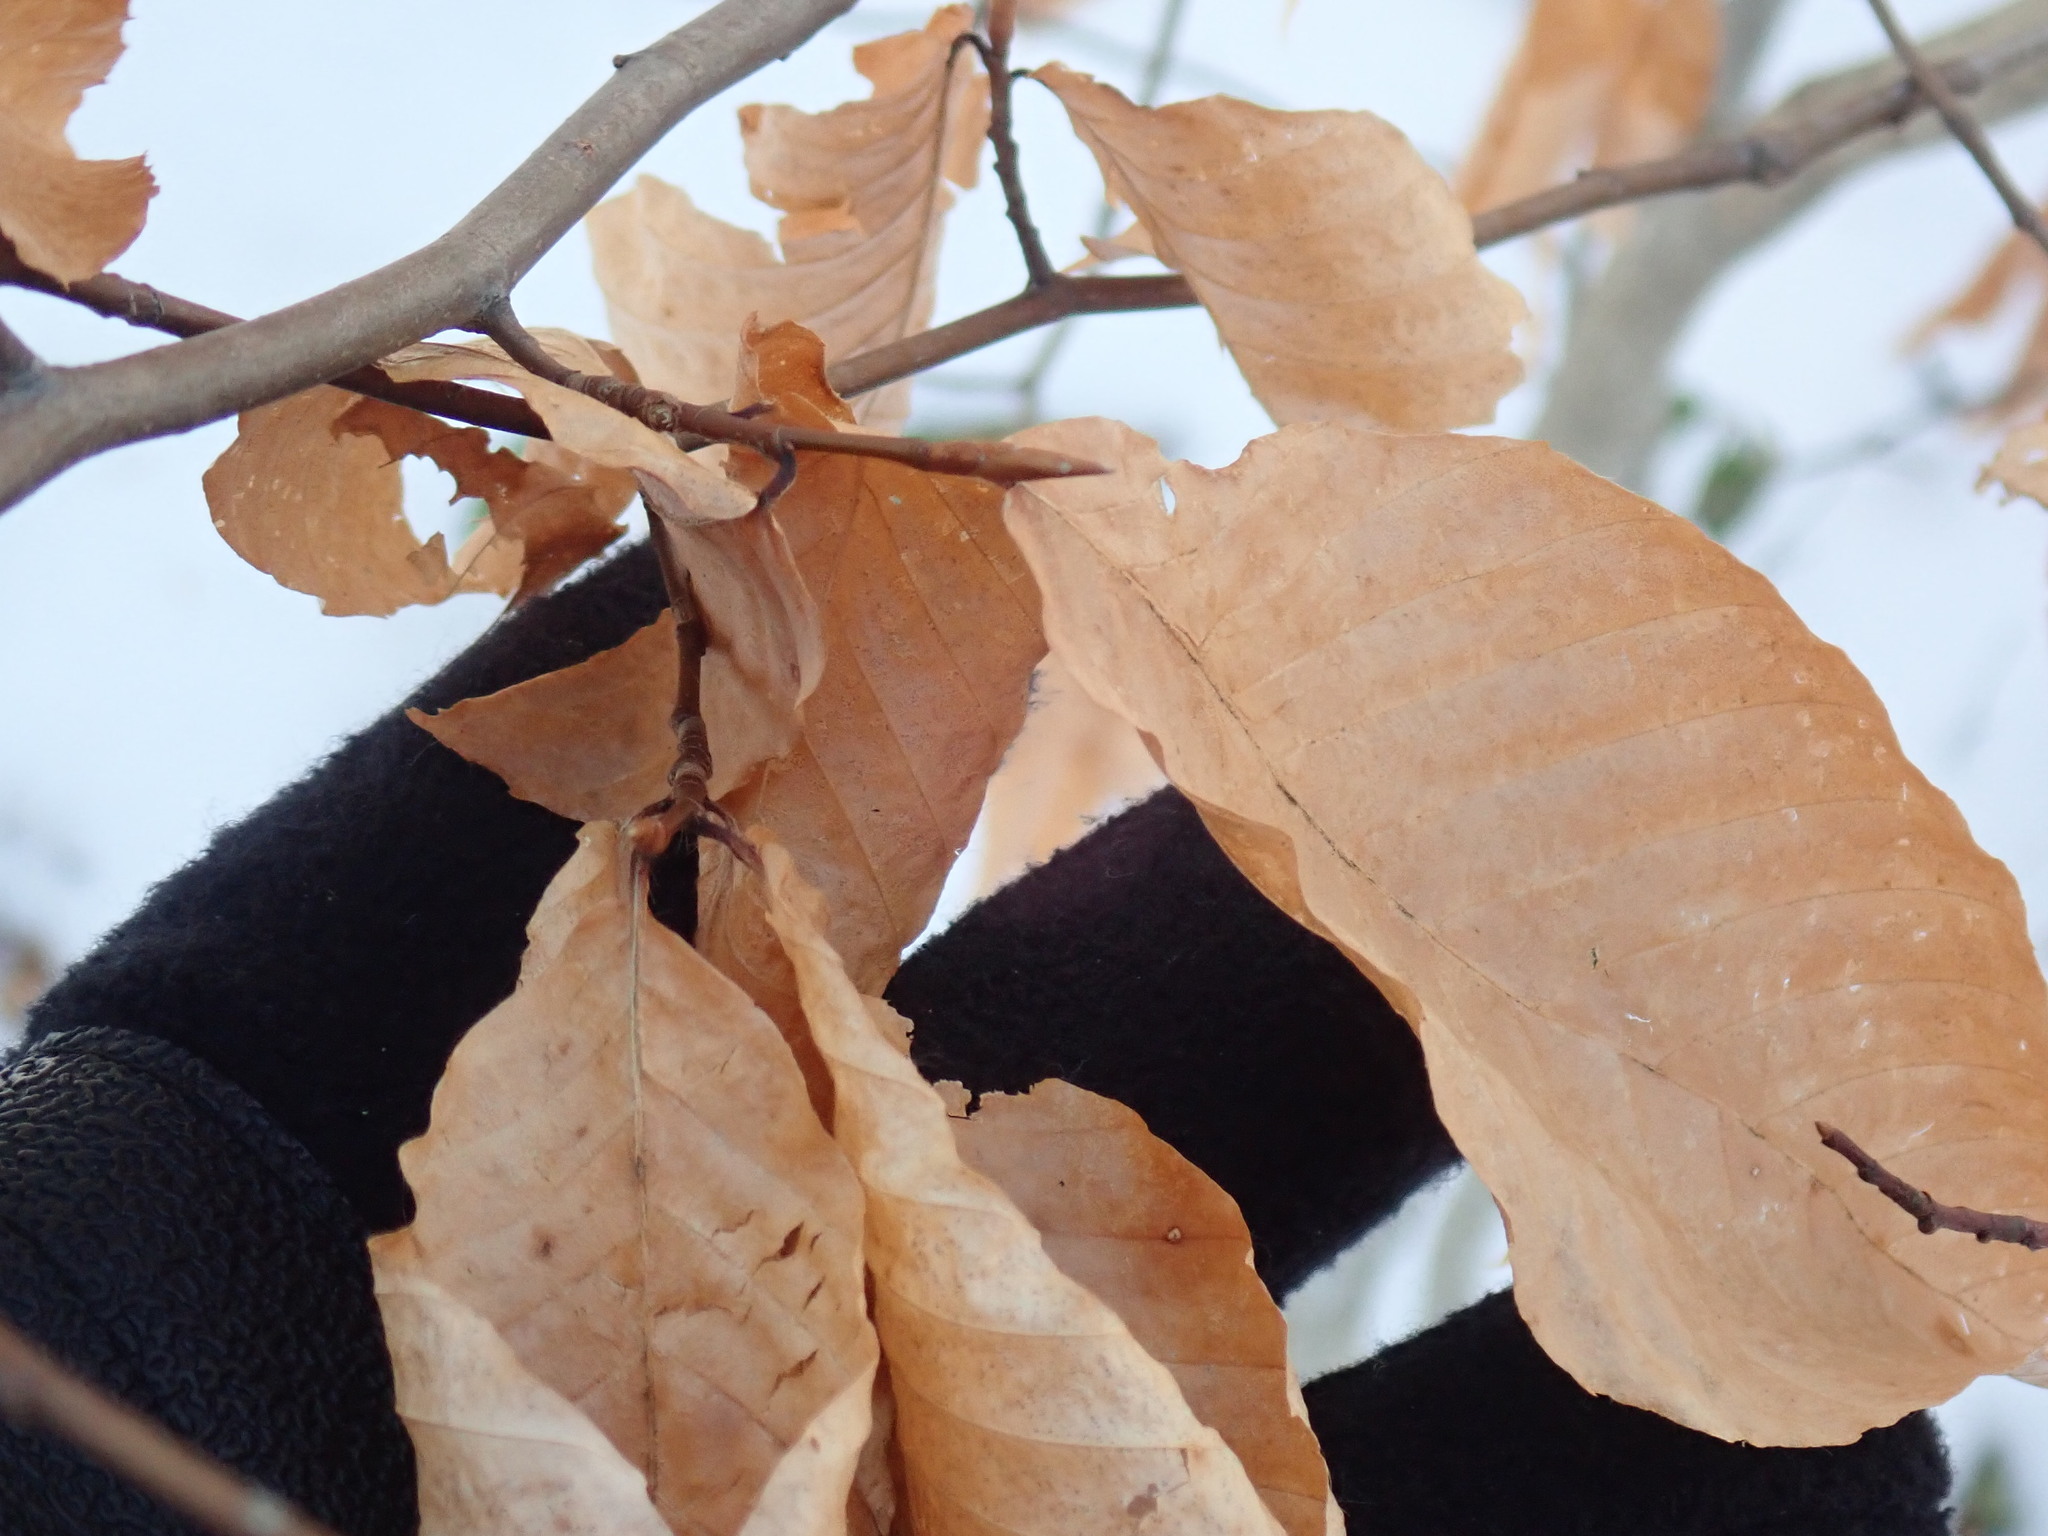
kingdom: Plantae
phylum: Tracheophyta
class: Magnoliopsida
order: Fagales
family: Fagaceae
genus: Fagus
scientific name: Fagus grandifolia
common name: American beech
